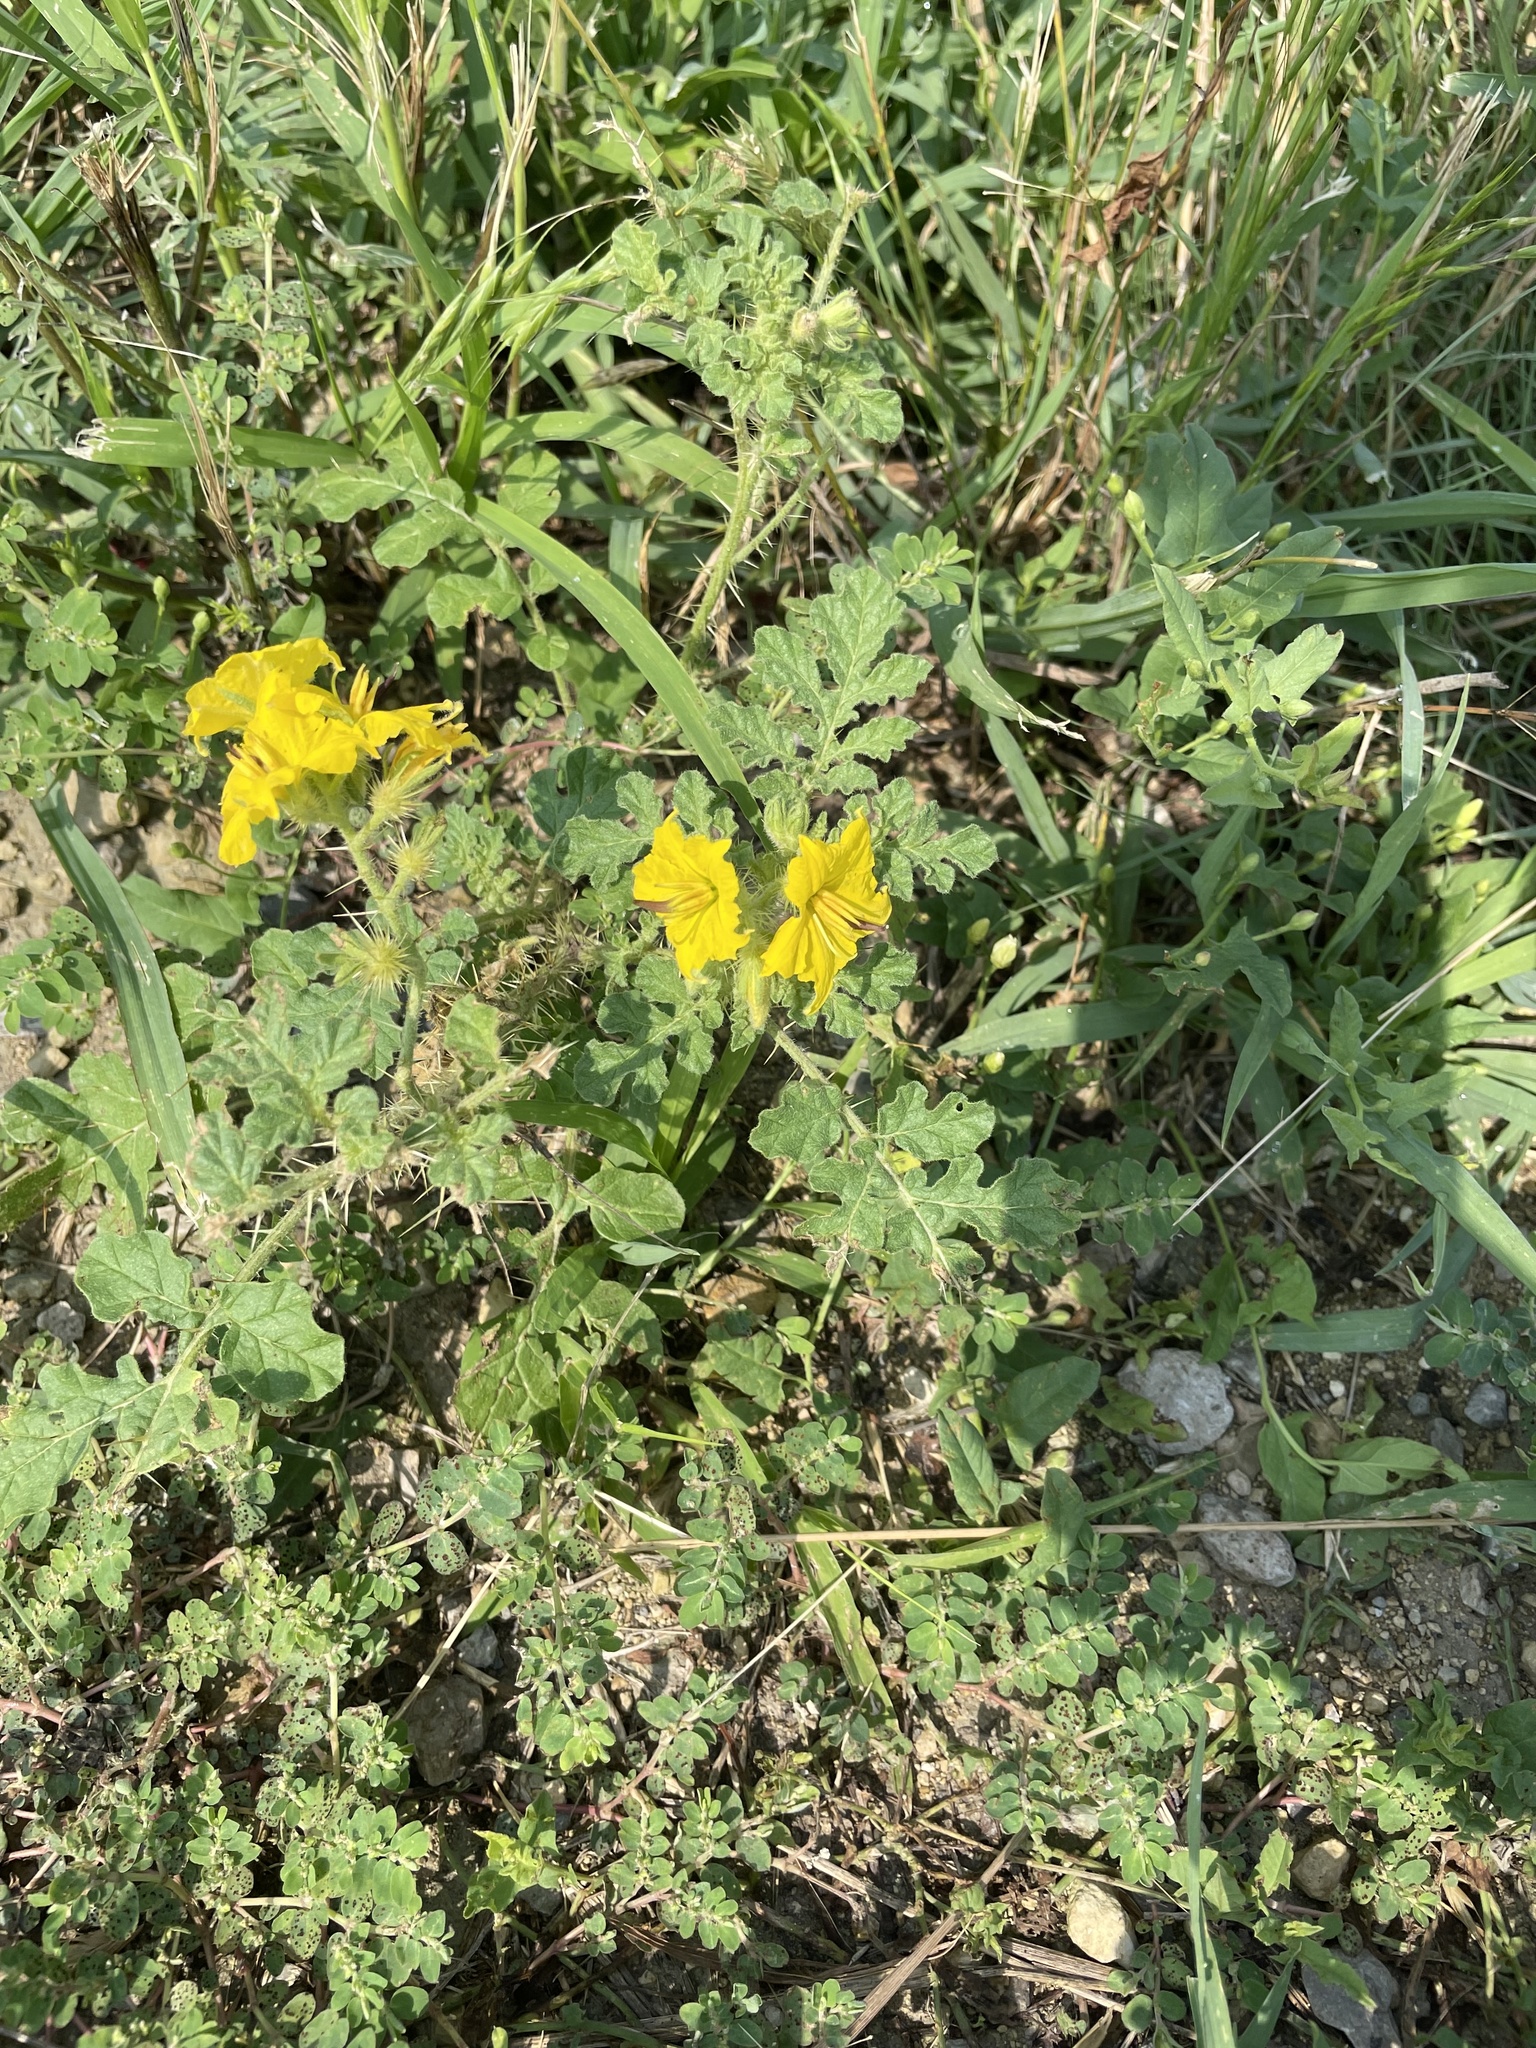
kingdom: Plantae
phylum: Tracheophyta
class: Magnoliopsida
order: Solanales
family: Solanaceae
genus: Solanum
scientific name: Solanum angustifolium
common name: Buffalobur nightshade
